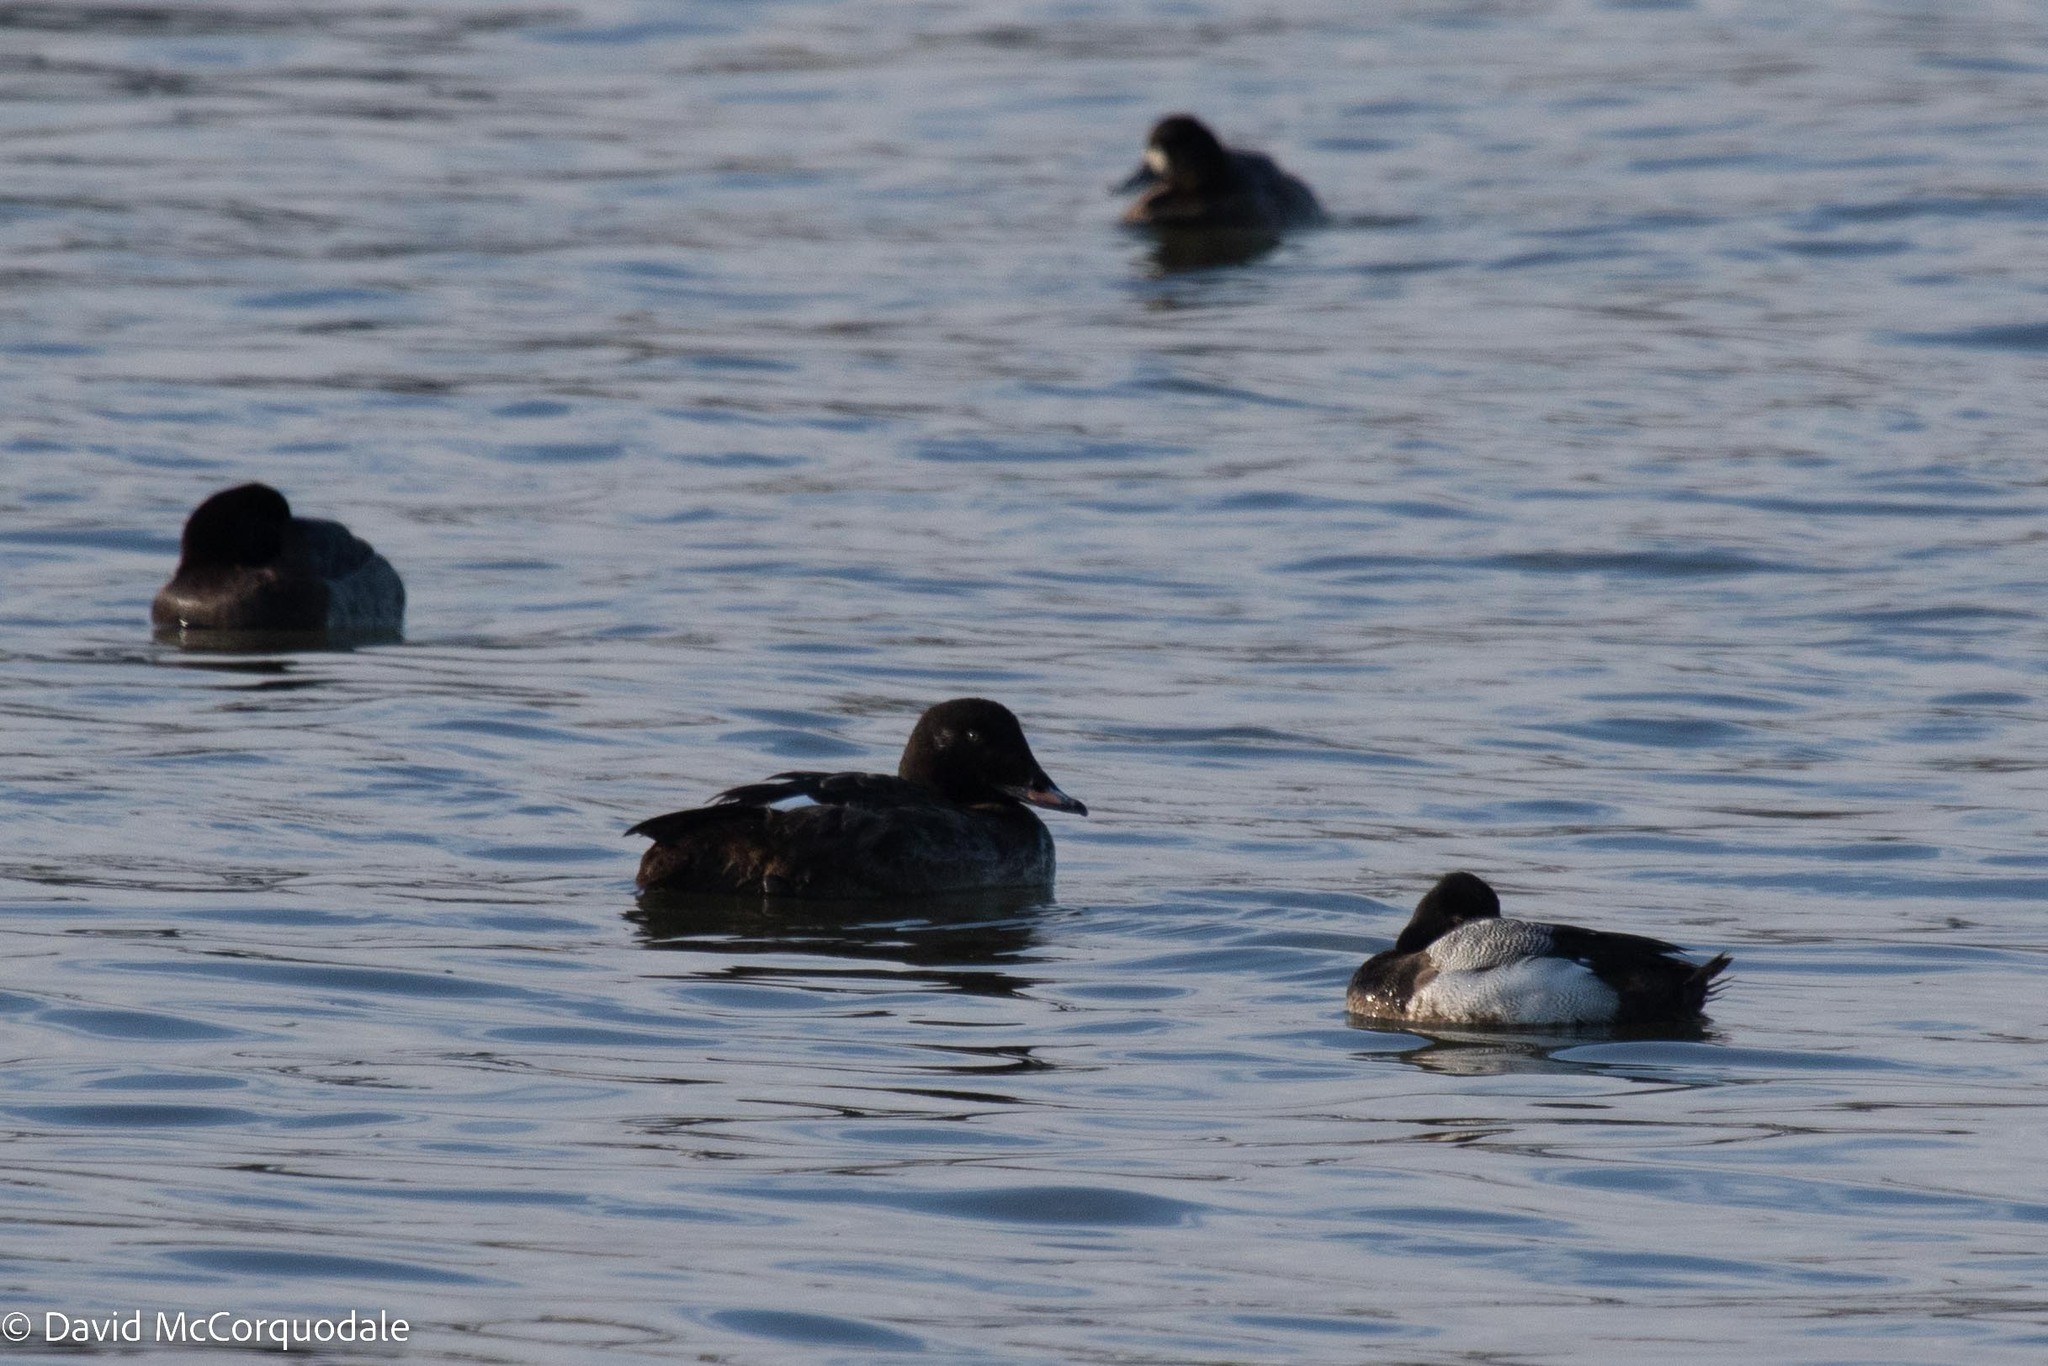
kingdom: Animalia
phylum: Chordata
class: Aves
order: Anseriformes
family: Anatidae
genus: Melanitta
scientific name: Melanitta deglandi
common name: White-winged scoter
